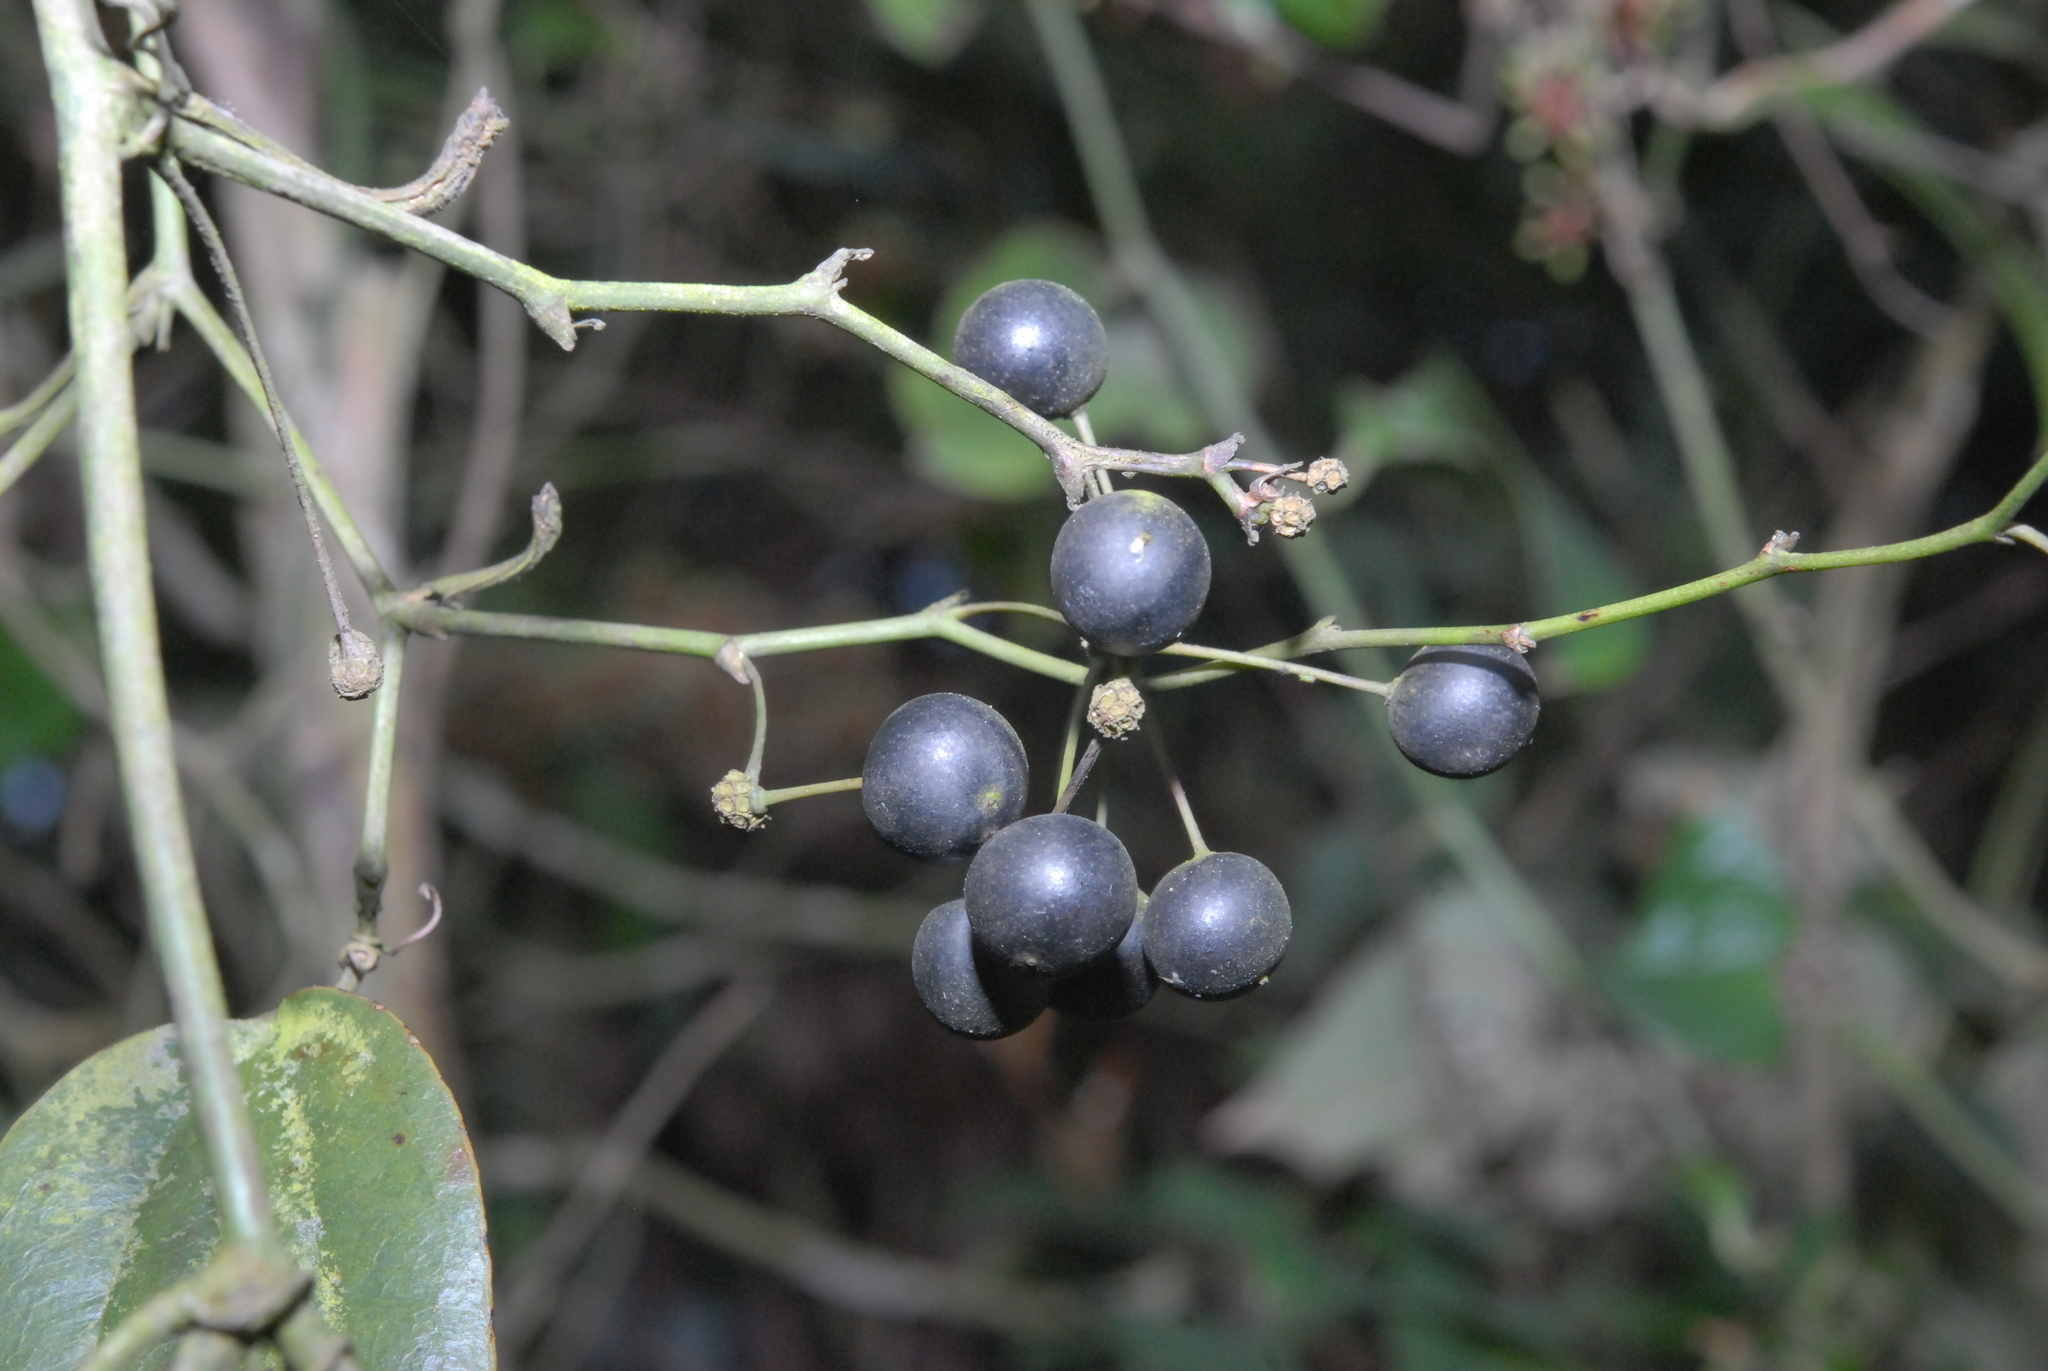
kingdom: Plantae
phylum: Tracheophyta
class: Liliopsida
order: Liliales
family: Smilacaceae
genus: Smilax
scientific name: Smilax aspericaulis
